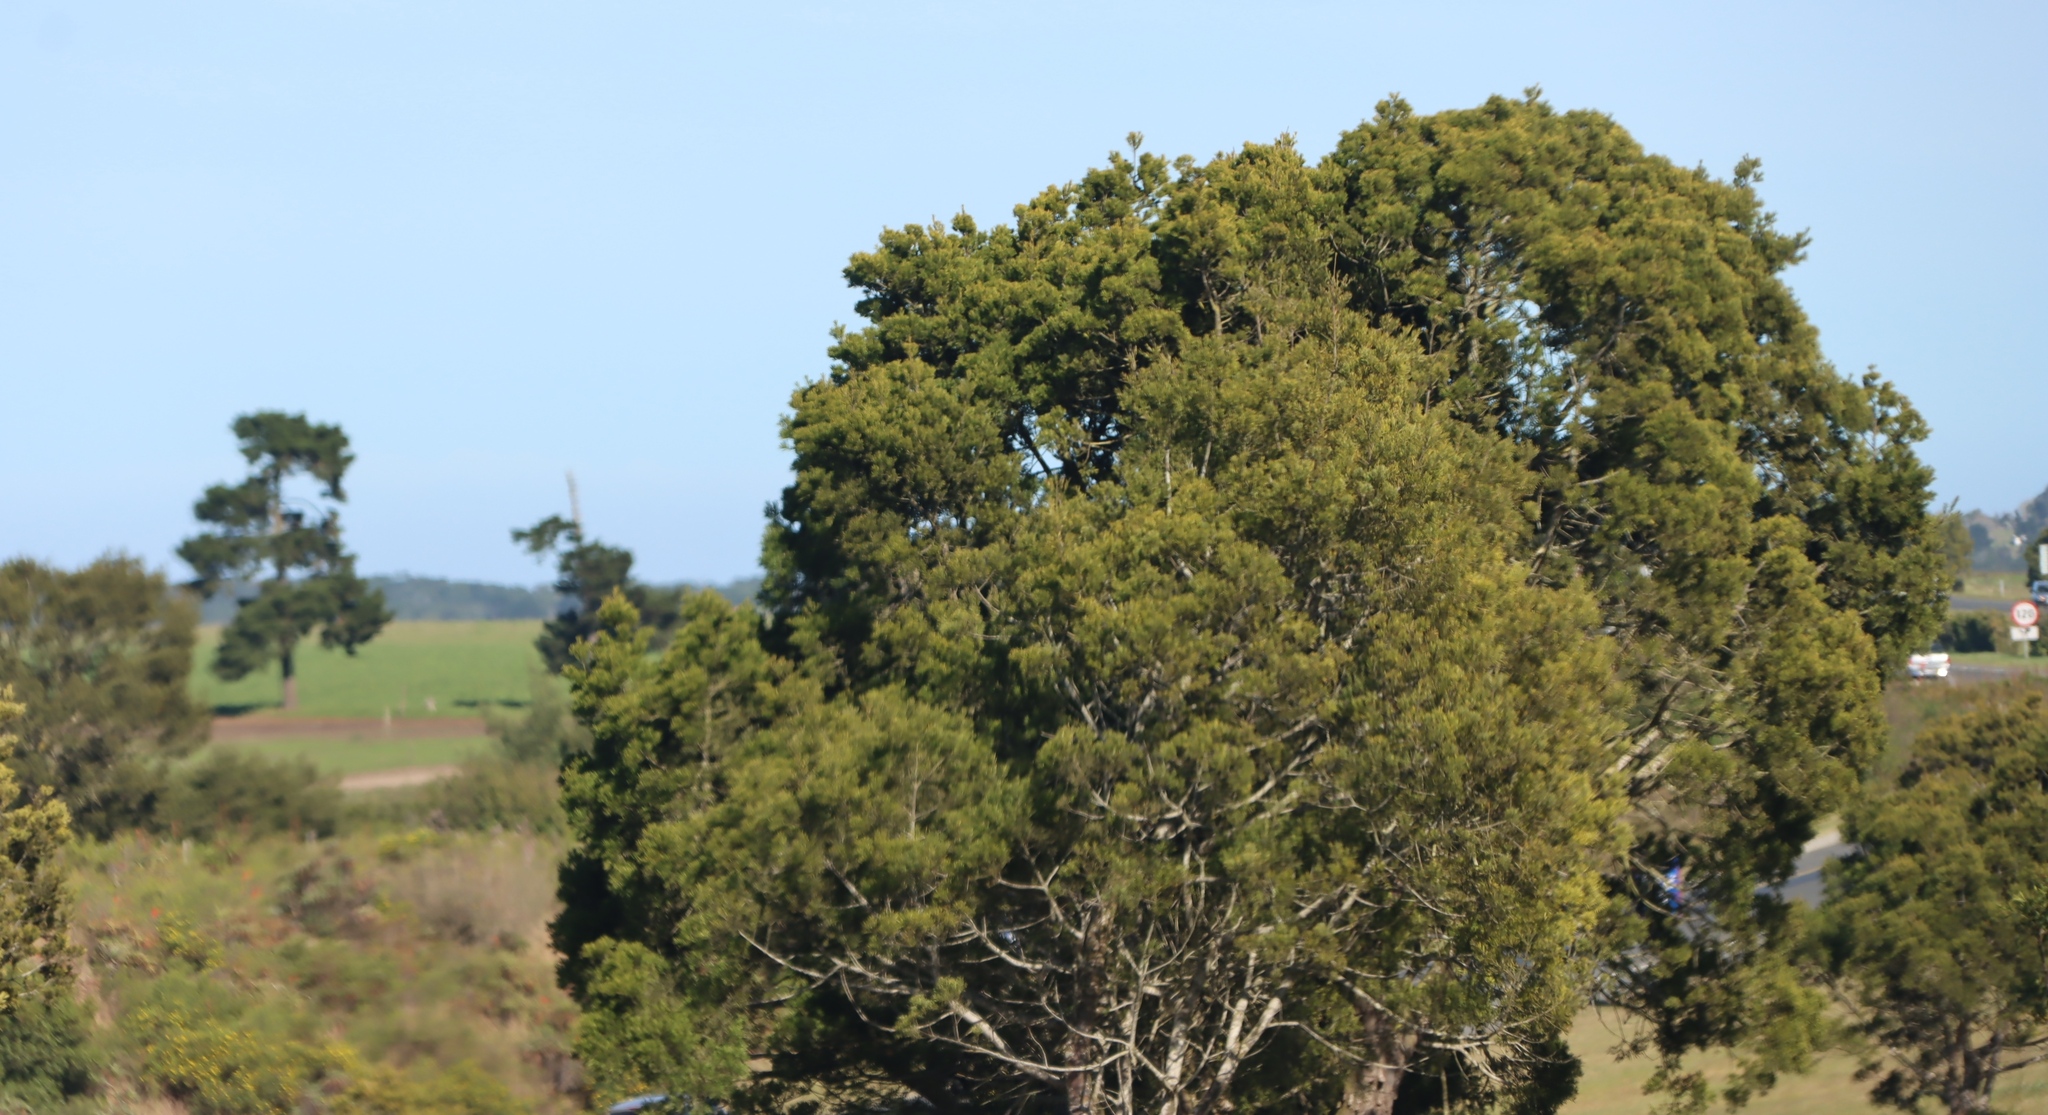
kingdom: Plantae
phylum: Tracheophyta
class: Pinopsida
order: Pinales
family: Podocarpaceae
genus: Afrocarpus
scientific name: Afrocarpus falcatus
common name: Bastard yellowwood
